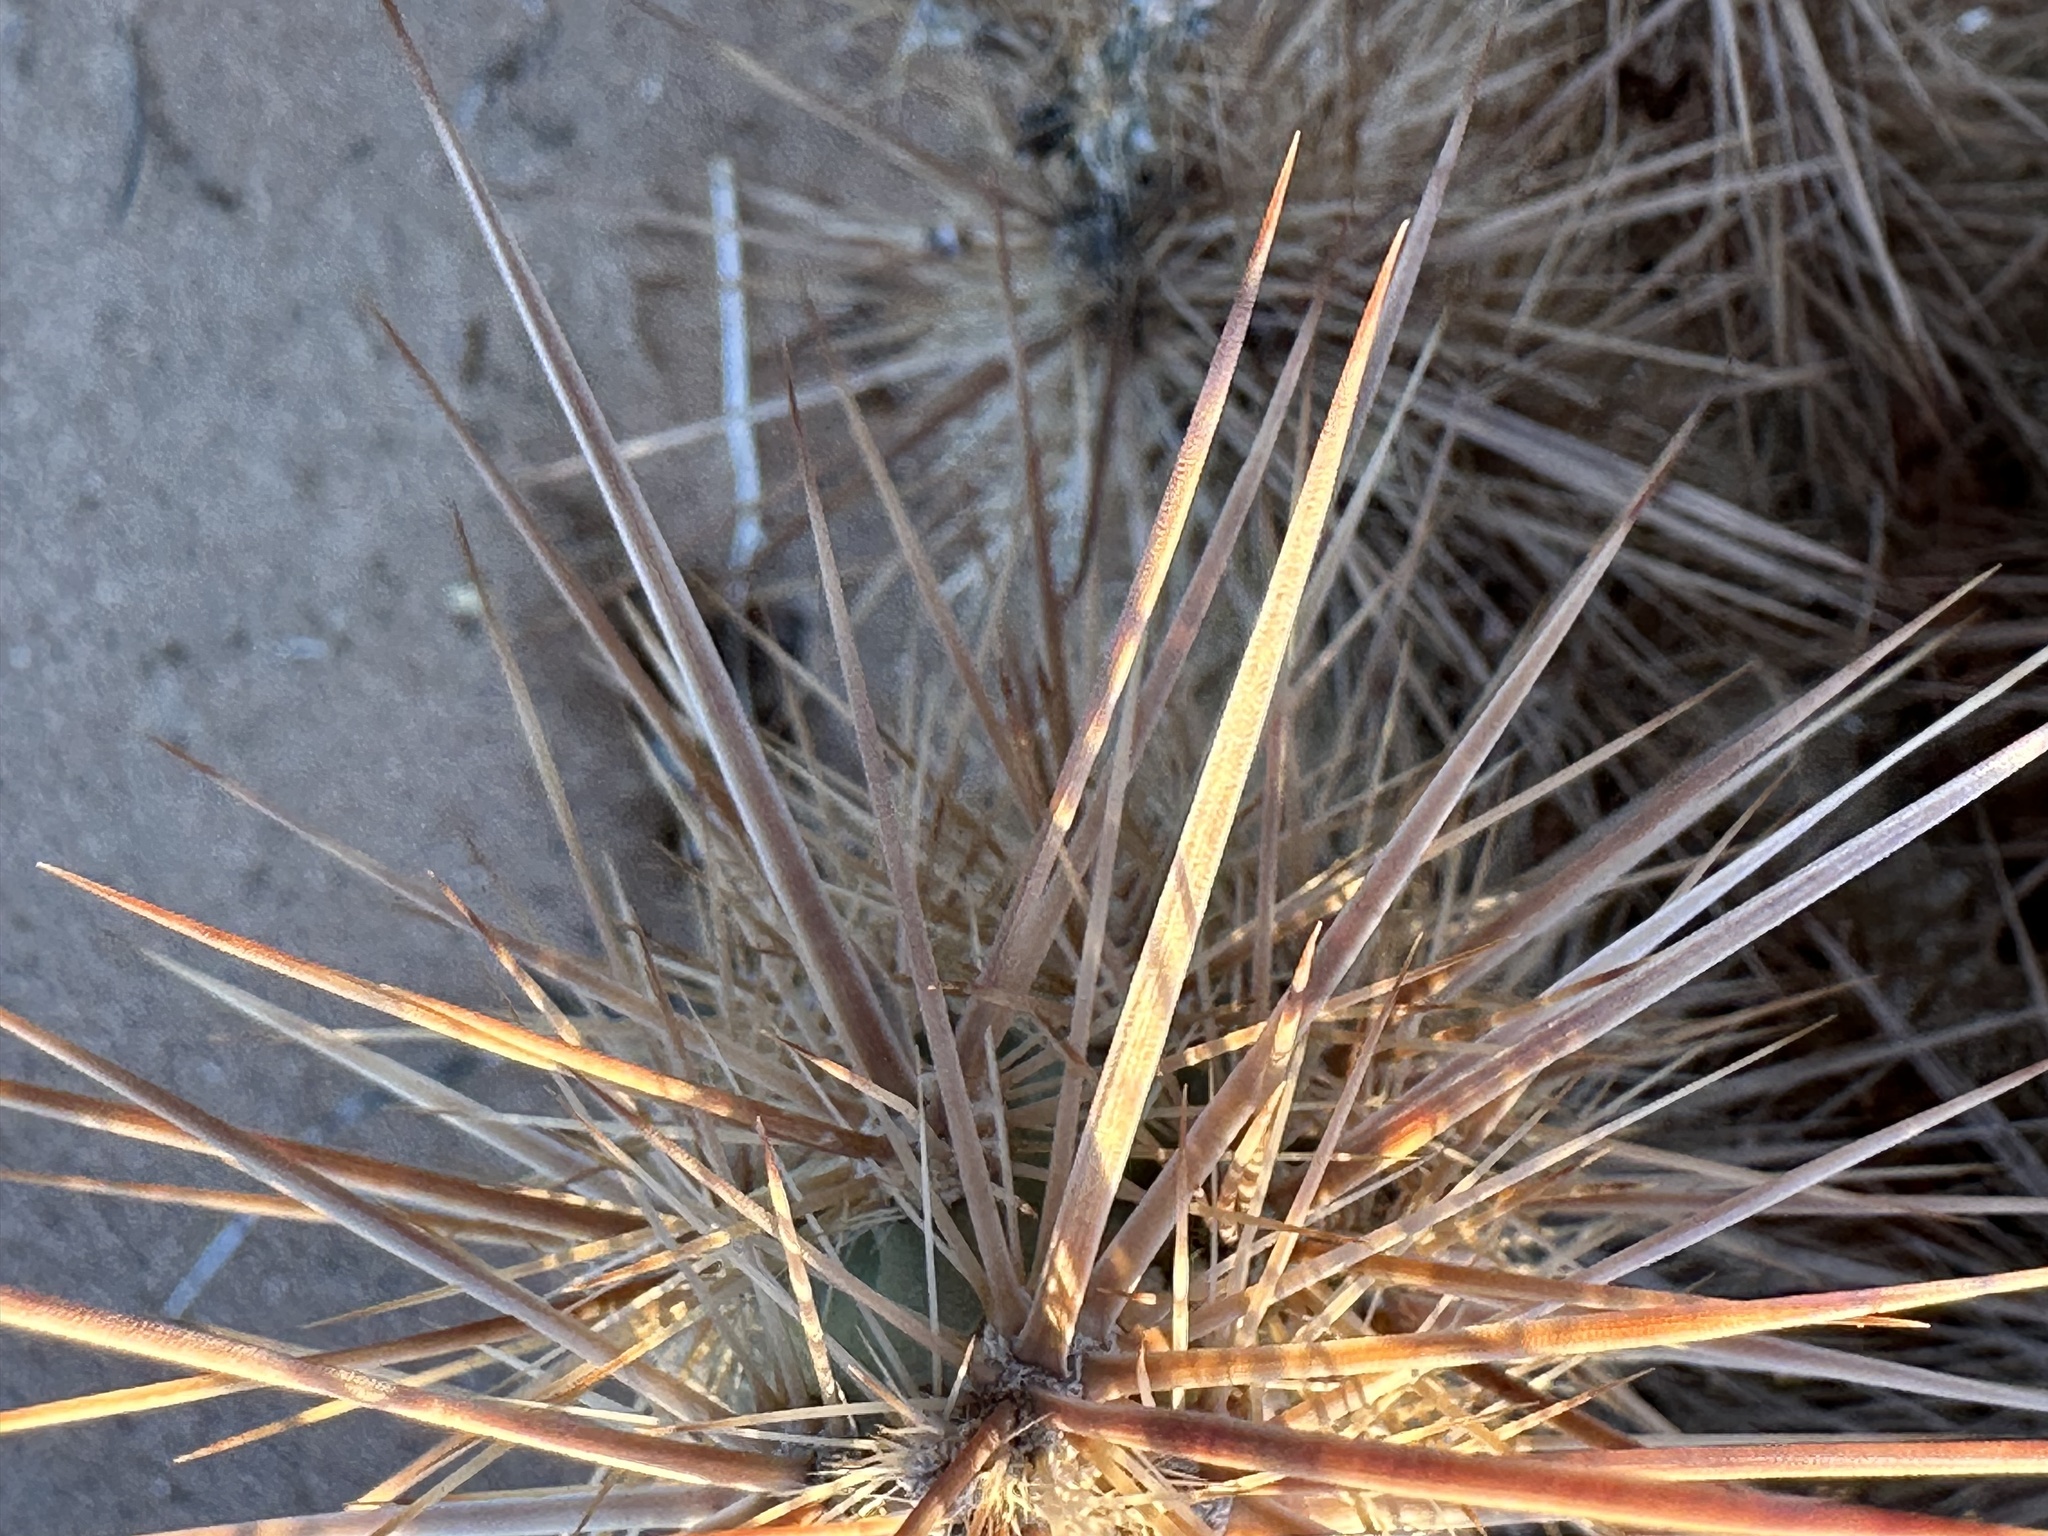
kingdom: Plantae
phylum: Tracheophyta
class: Magnoliopsida
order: Caryophyllales
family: Cactaceae
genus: Grusonia
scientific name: Grusonia kunzei
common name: Wright's club cholla
